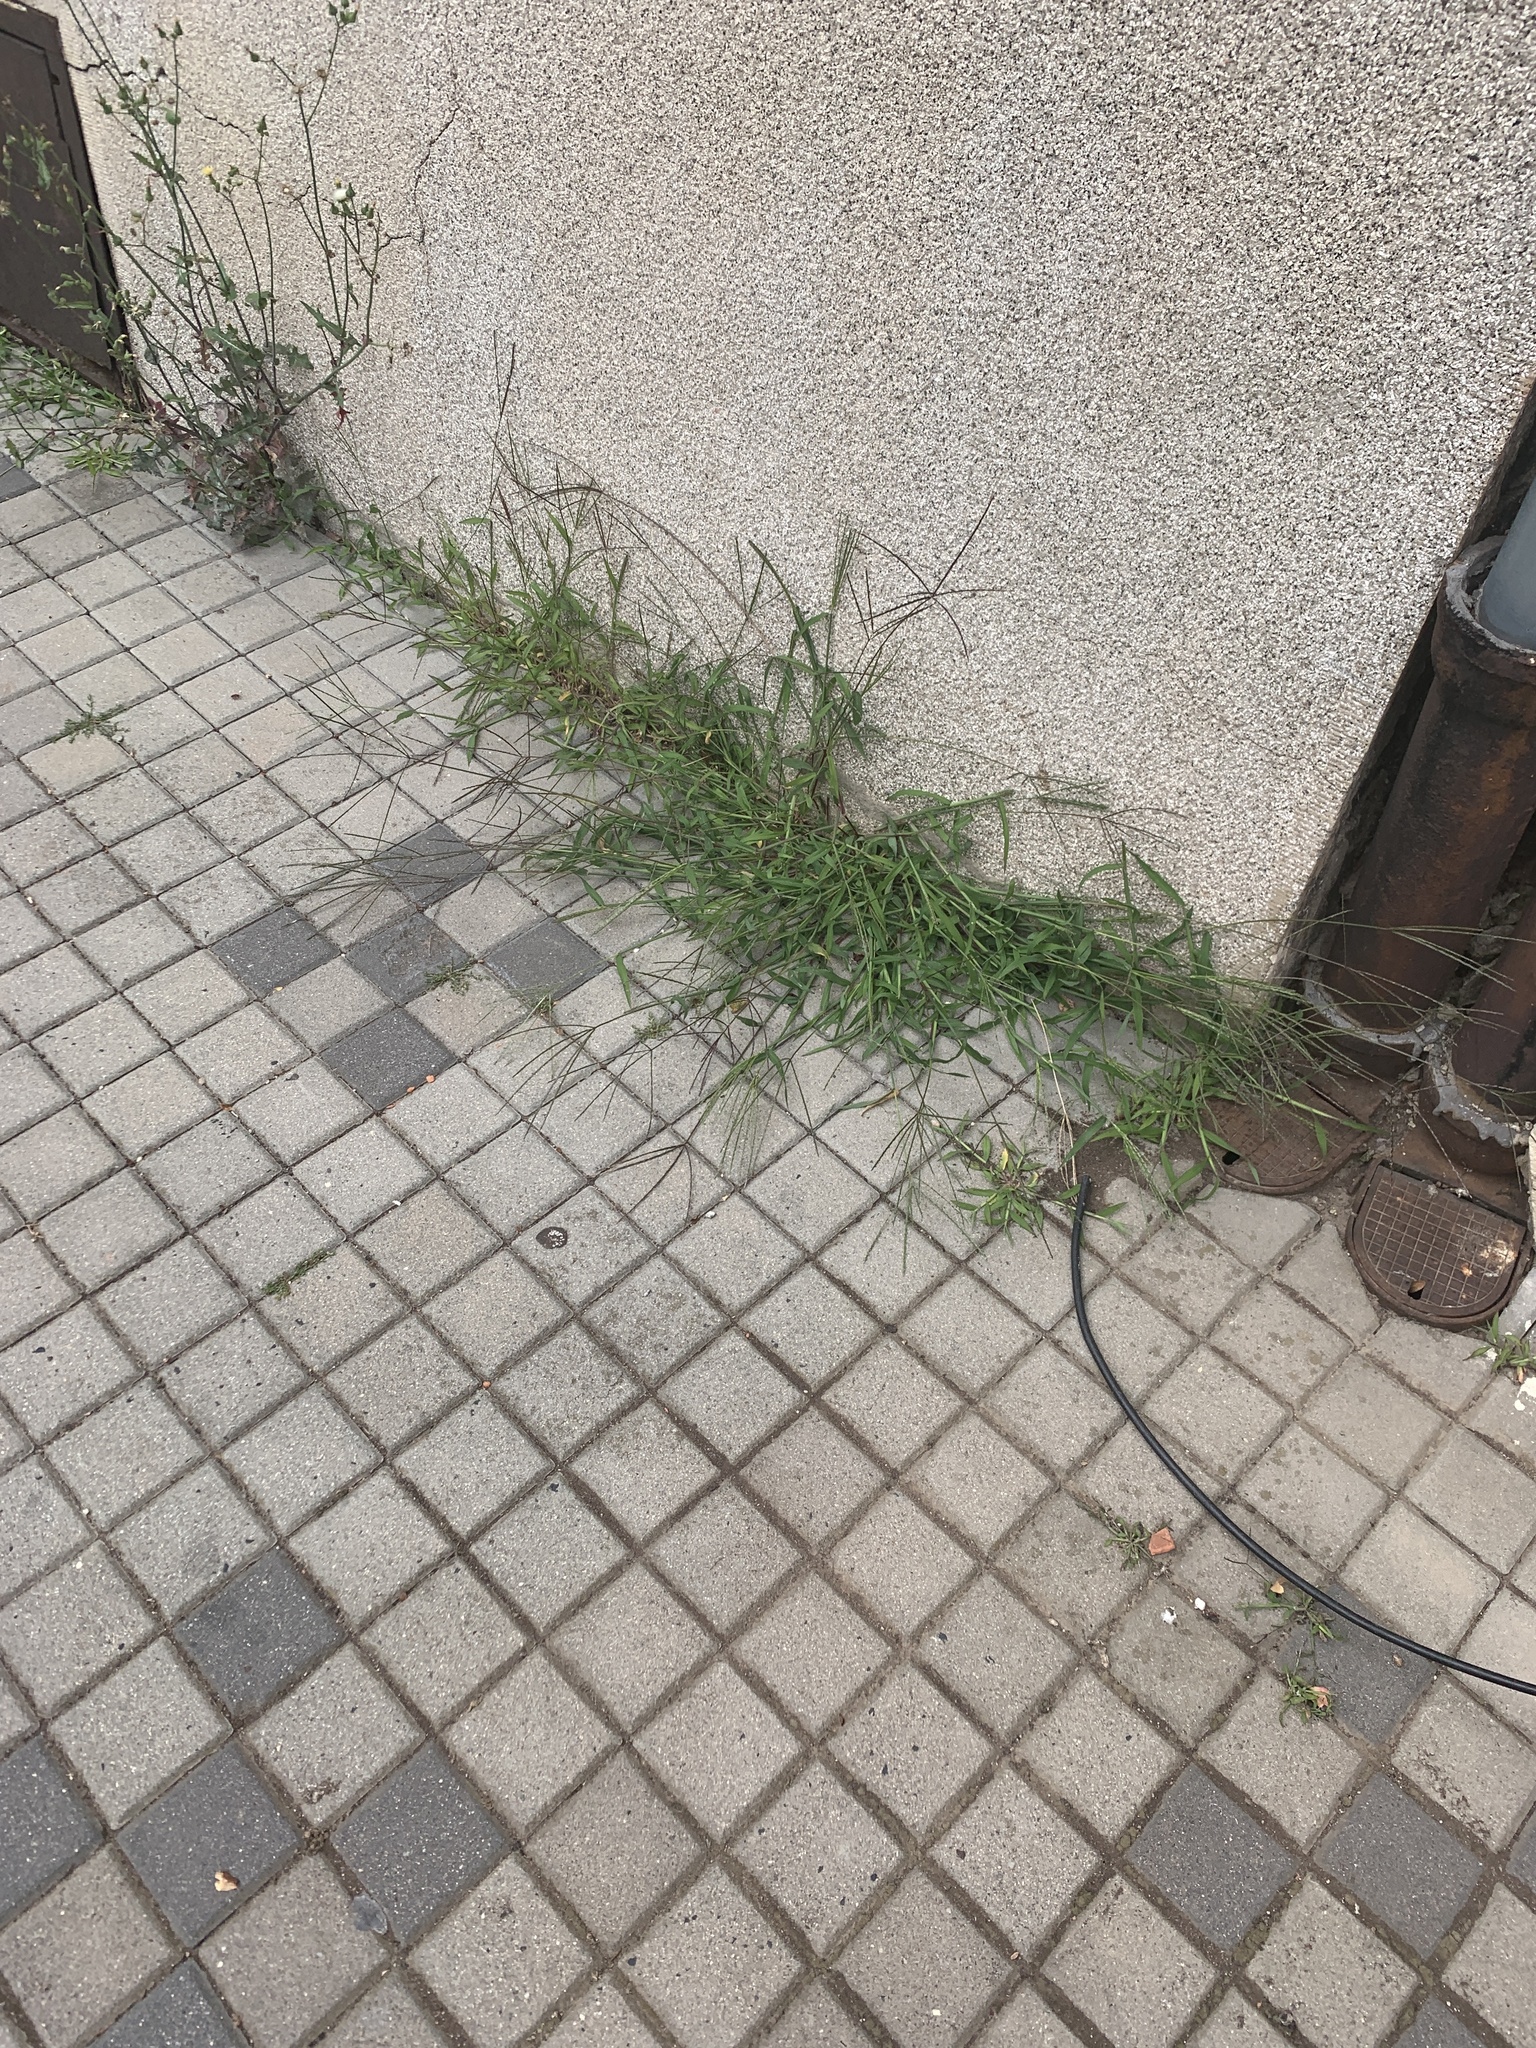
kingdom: Plantae
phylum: Tracheophyta
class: Liliopsida
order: Poales
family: Poaceae
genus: Digitaria
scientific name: Digitaria sanguinalis
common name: Hairy crabgrass
